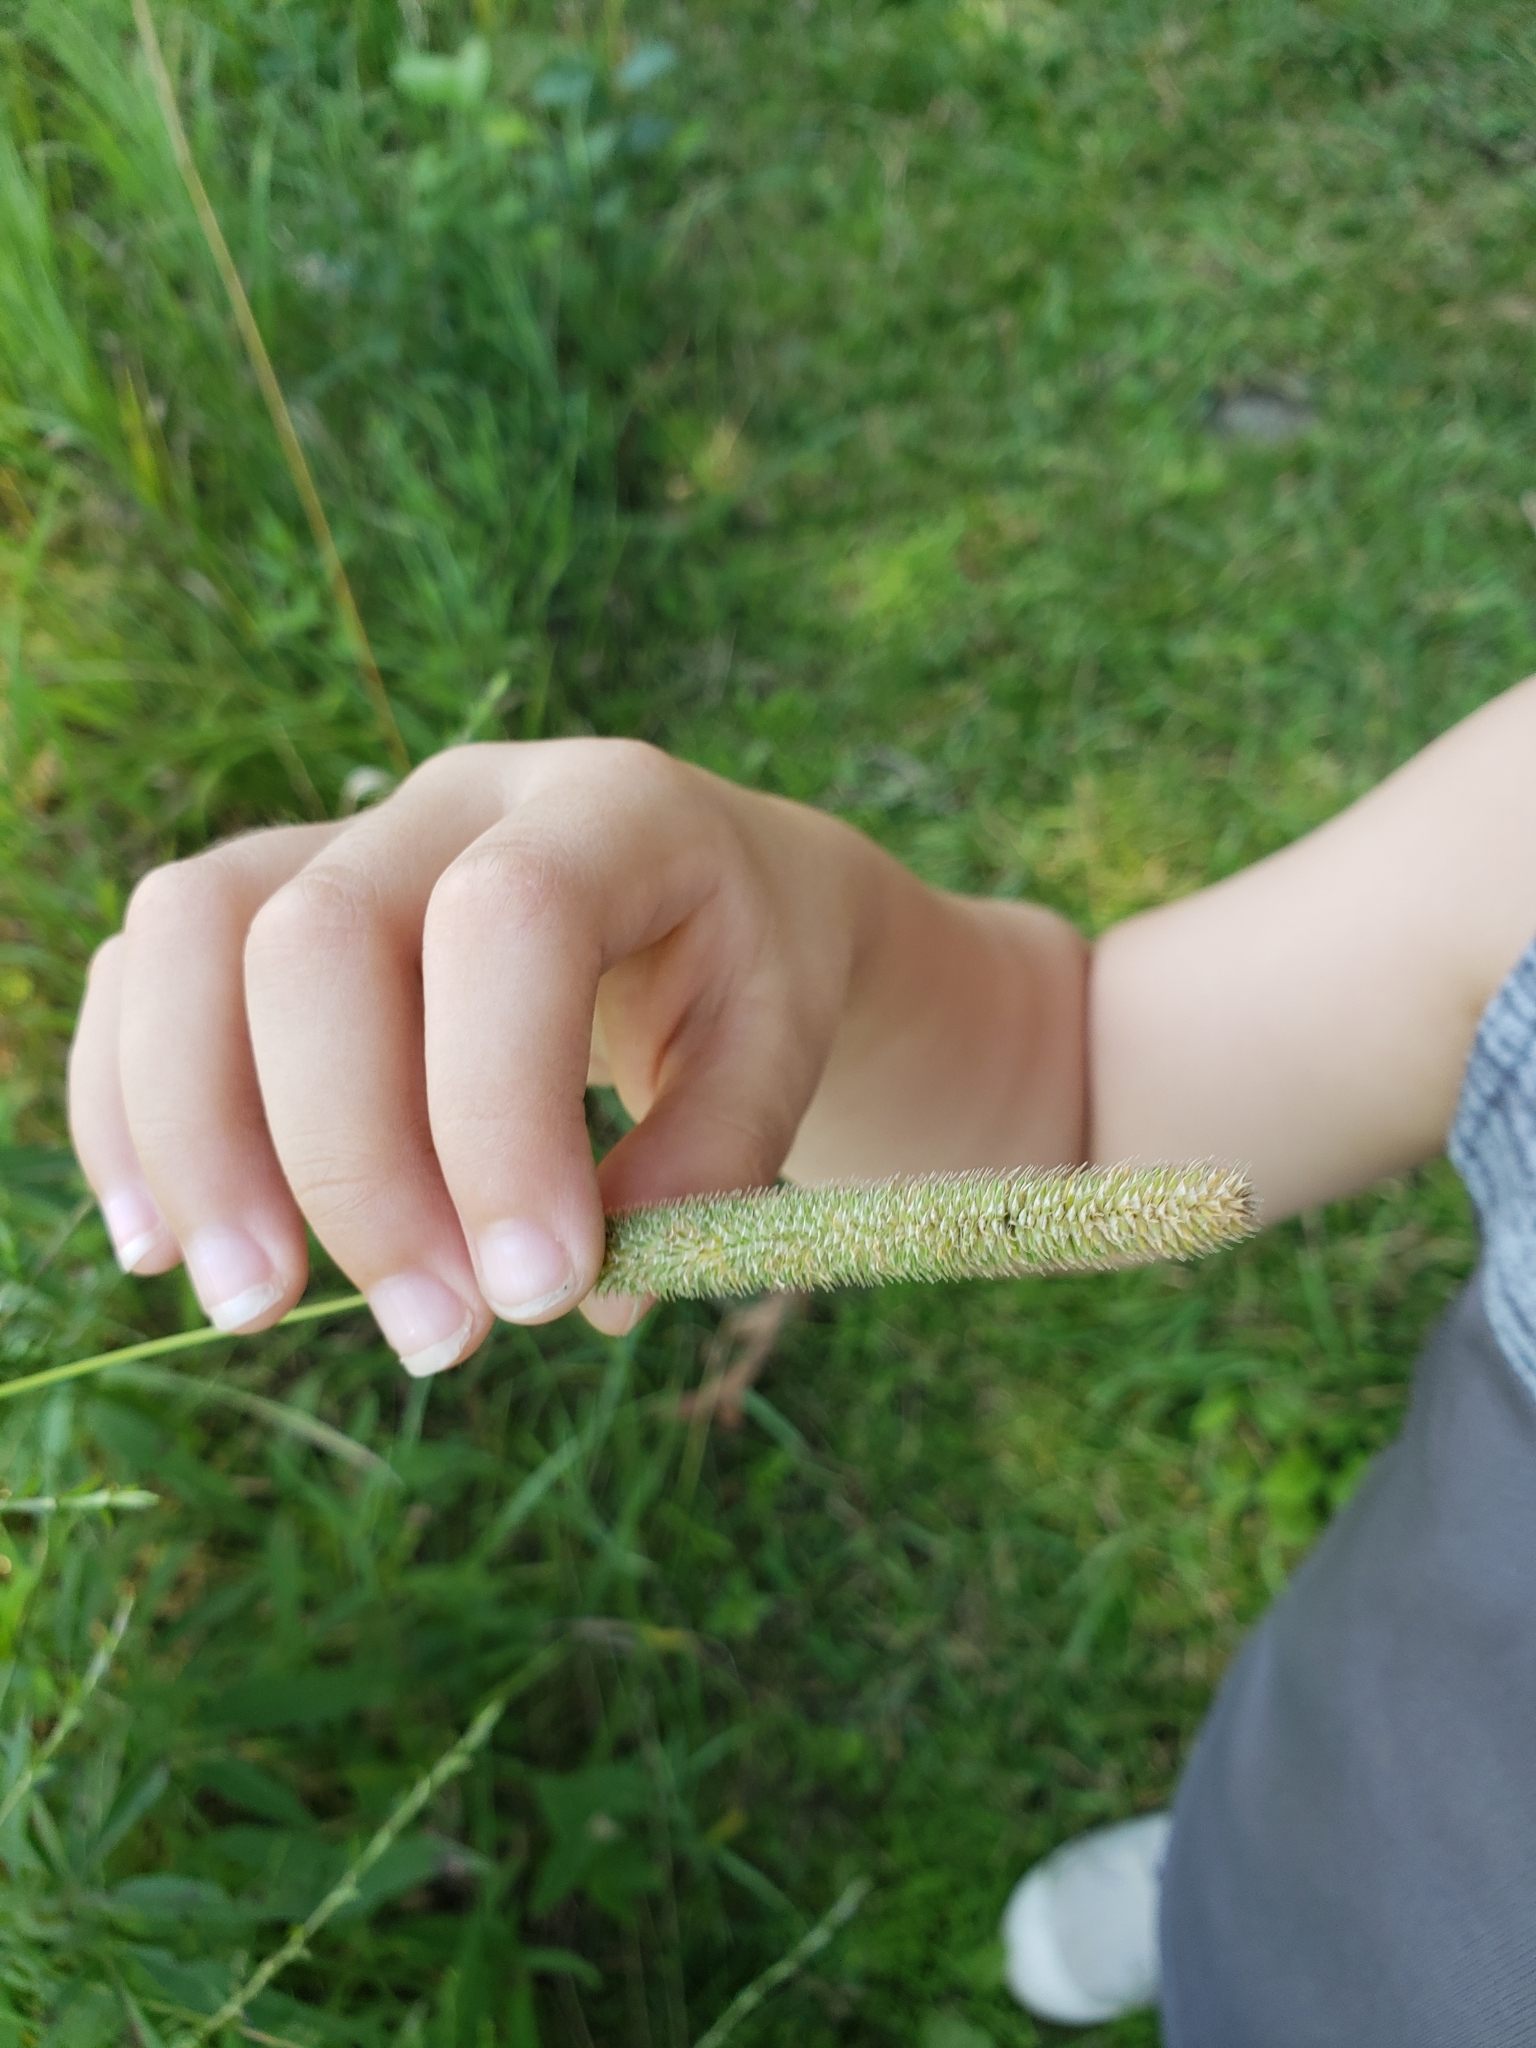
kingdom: Plantae
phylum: Tracheophyta
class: Liliopsida
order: Poales
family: Poaceae
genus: Phleum
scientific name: Phleum pratense
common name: Timothy grass
